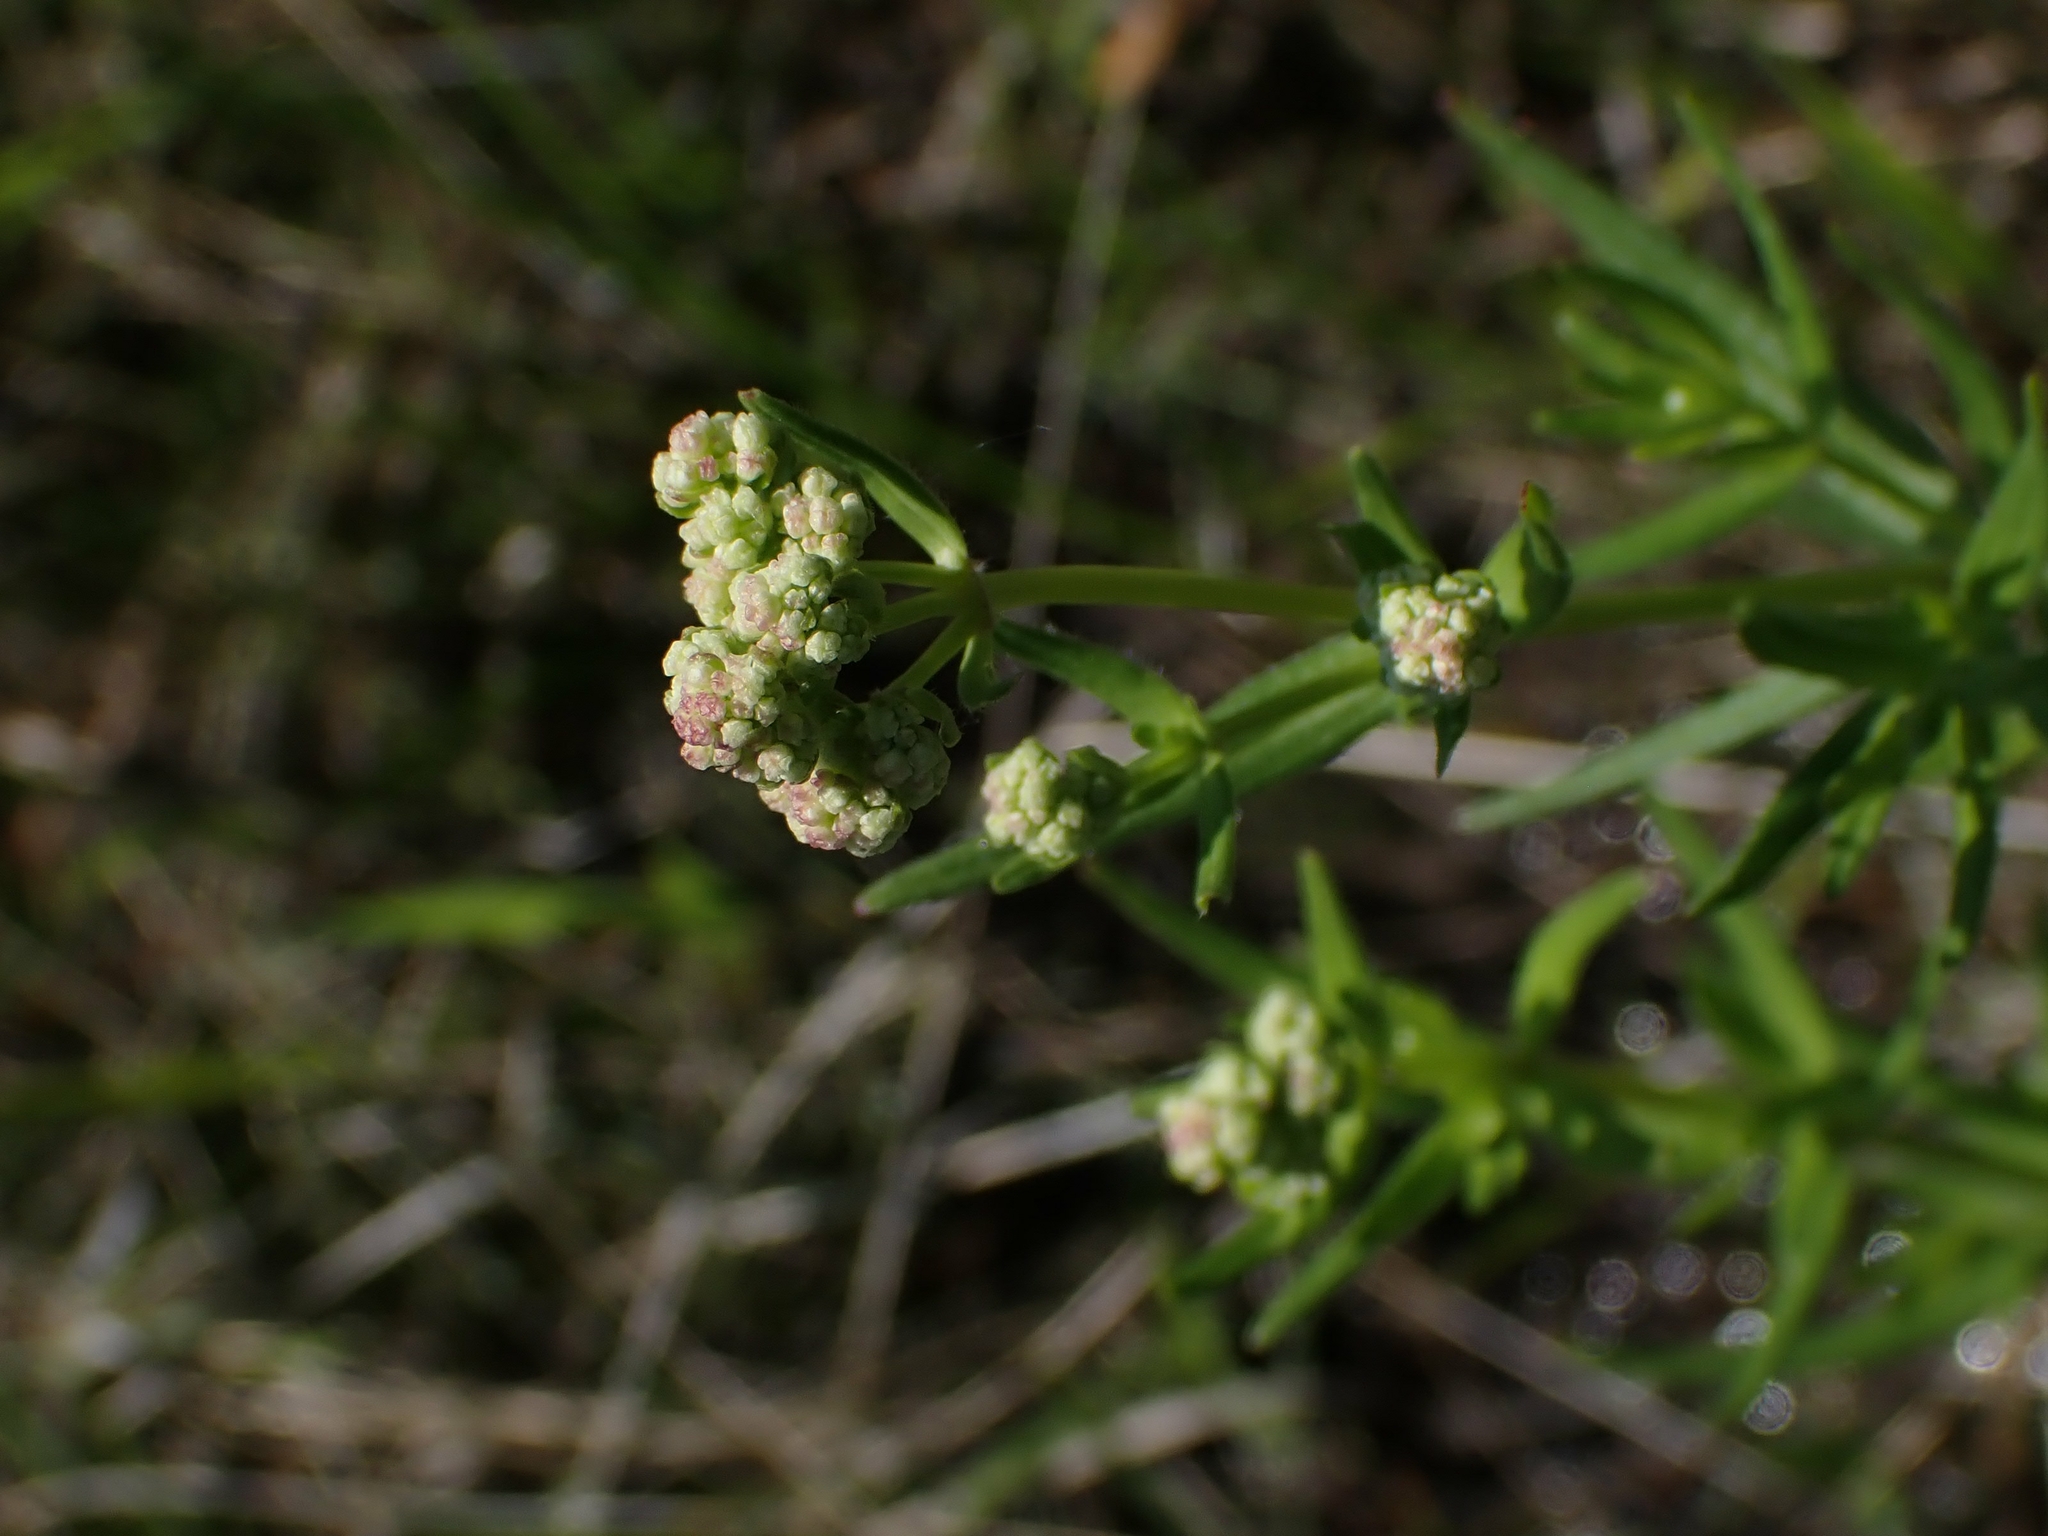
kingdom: Plantae
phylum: Tracheophyta
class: Magnoliopsida
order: Gentianales
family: Rubiaceae
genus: Galium
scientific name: Galium boreale
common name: Northern bedstraw
